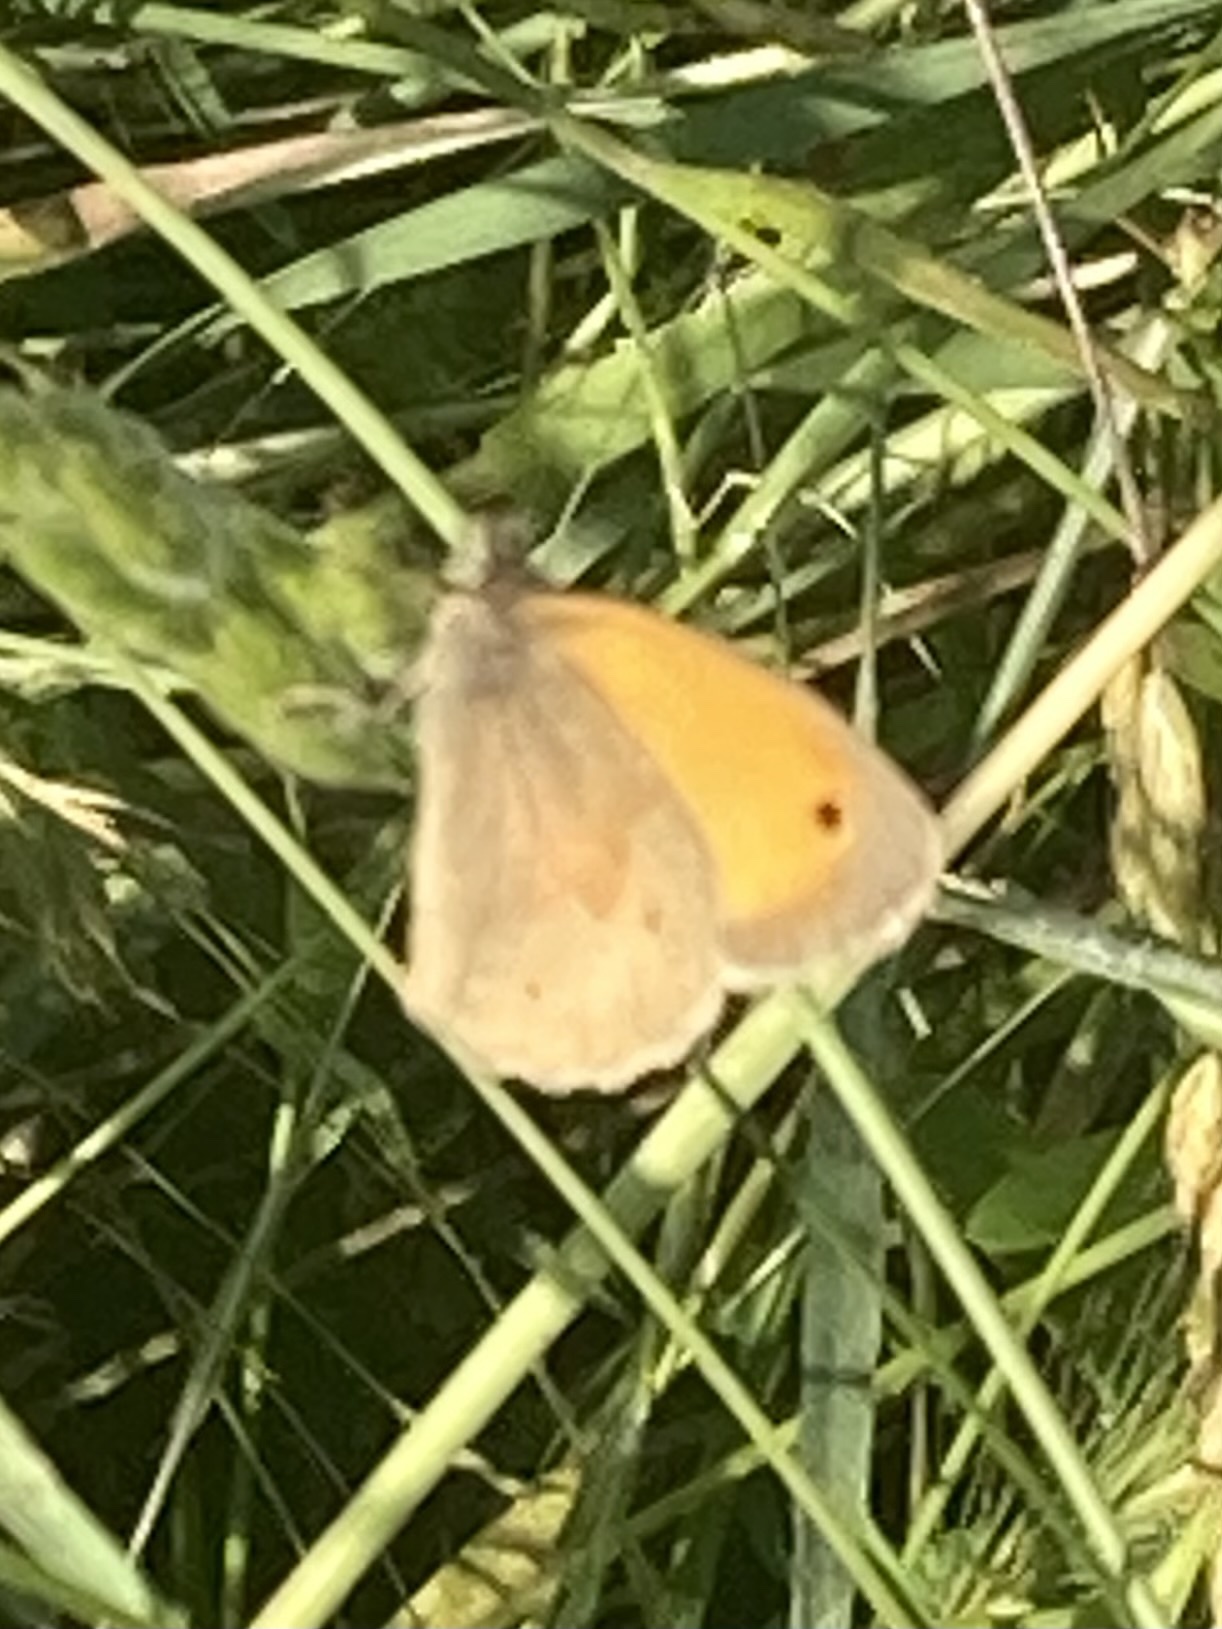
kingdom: Animalia
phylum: Arthropoda
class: Insecta
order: Lepidoptera
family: Nymphalidae
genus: Maniola
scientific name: Maniola jurtina
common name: Meadow brown
